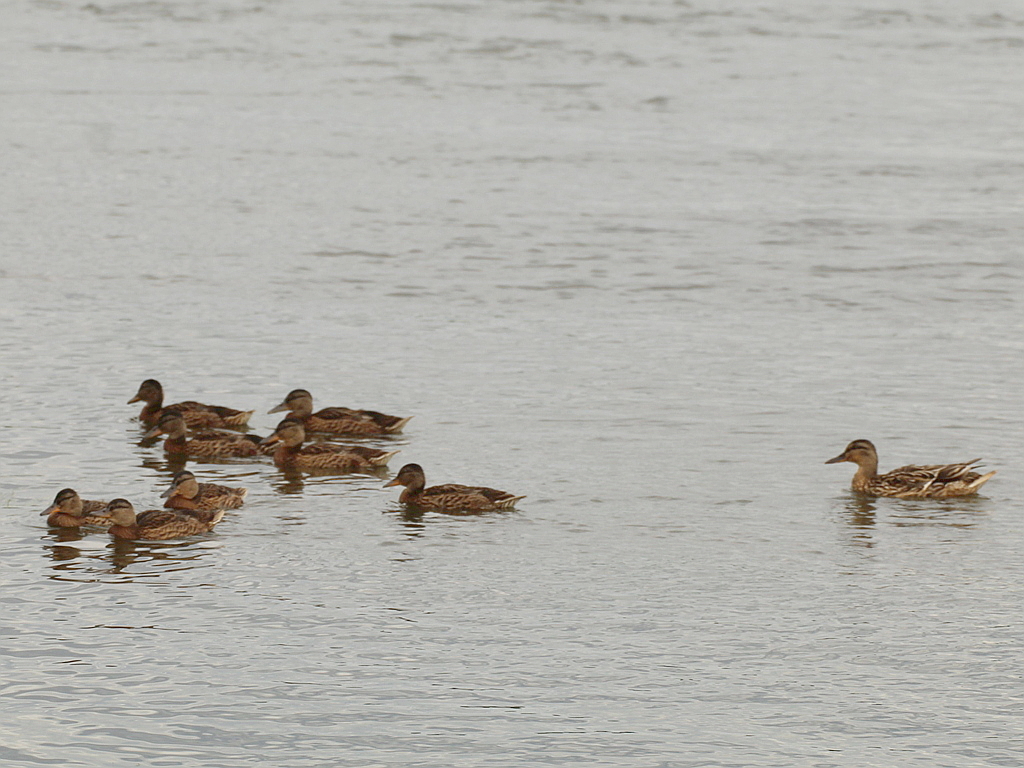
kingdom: Animalia
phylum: Chordata
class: Aves
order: Anseriformes
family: Anatidae
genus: Anas
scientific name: Anas platyrhynchos
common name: Mallard
